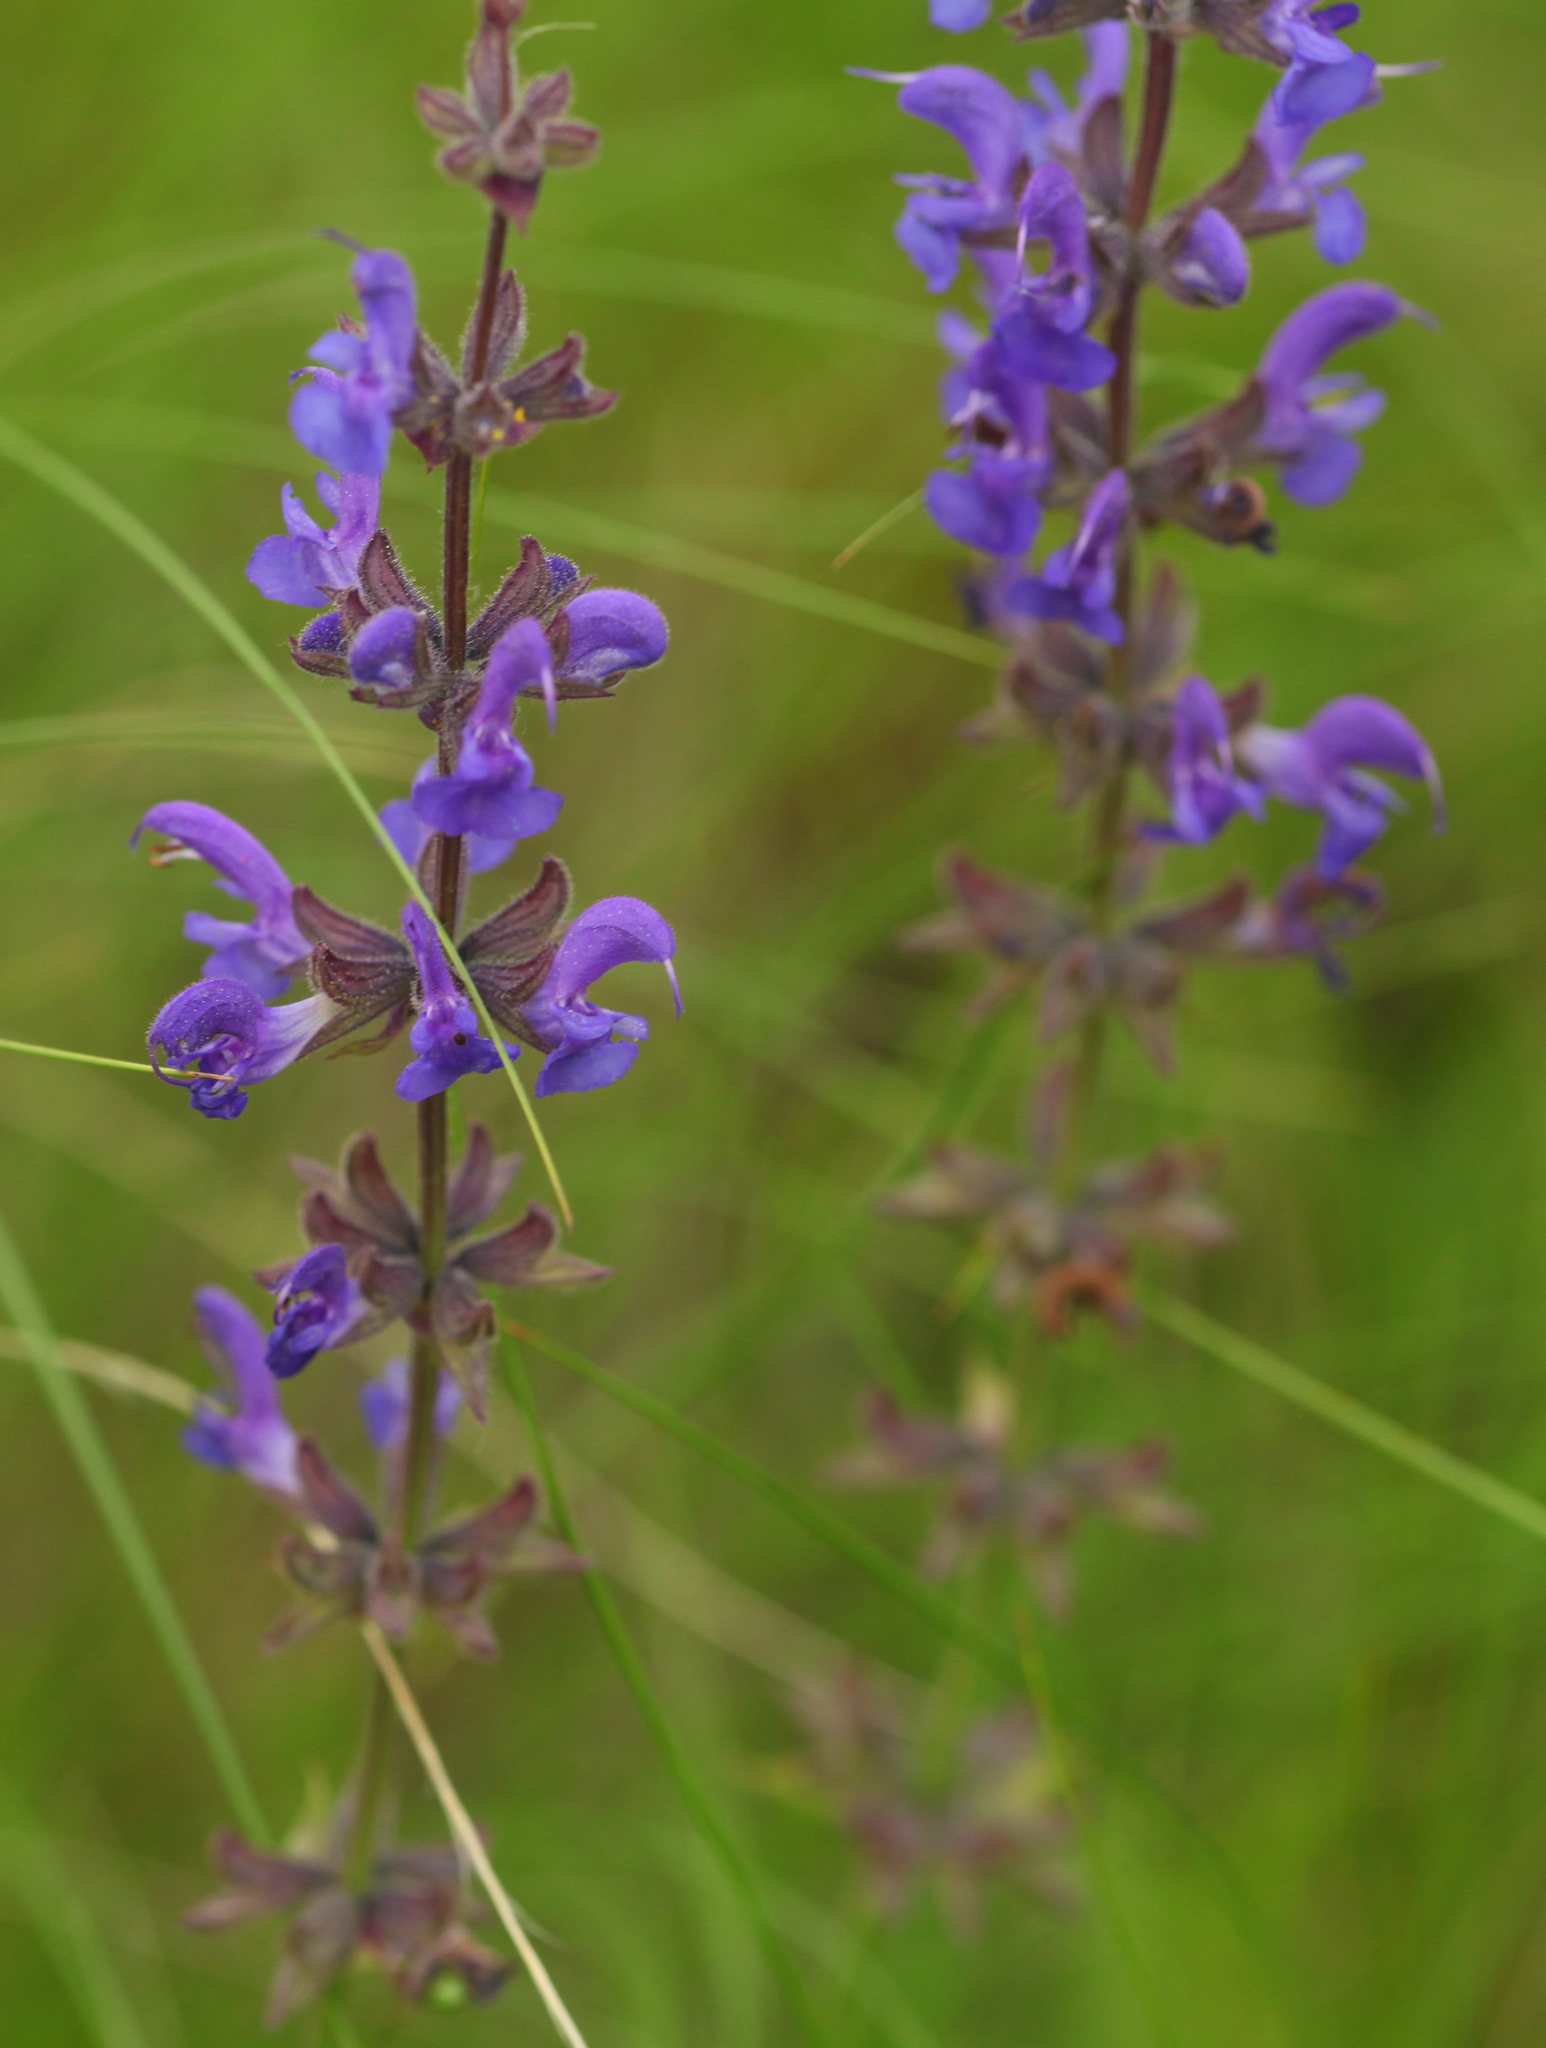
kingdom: Plantae
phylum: Tracheophyta
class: Magnoliopsida
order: Lamiales
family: Lamiaceae
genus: Salvia
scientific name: Salvia dumetorum
